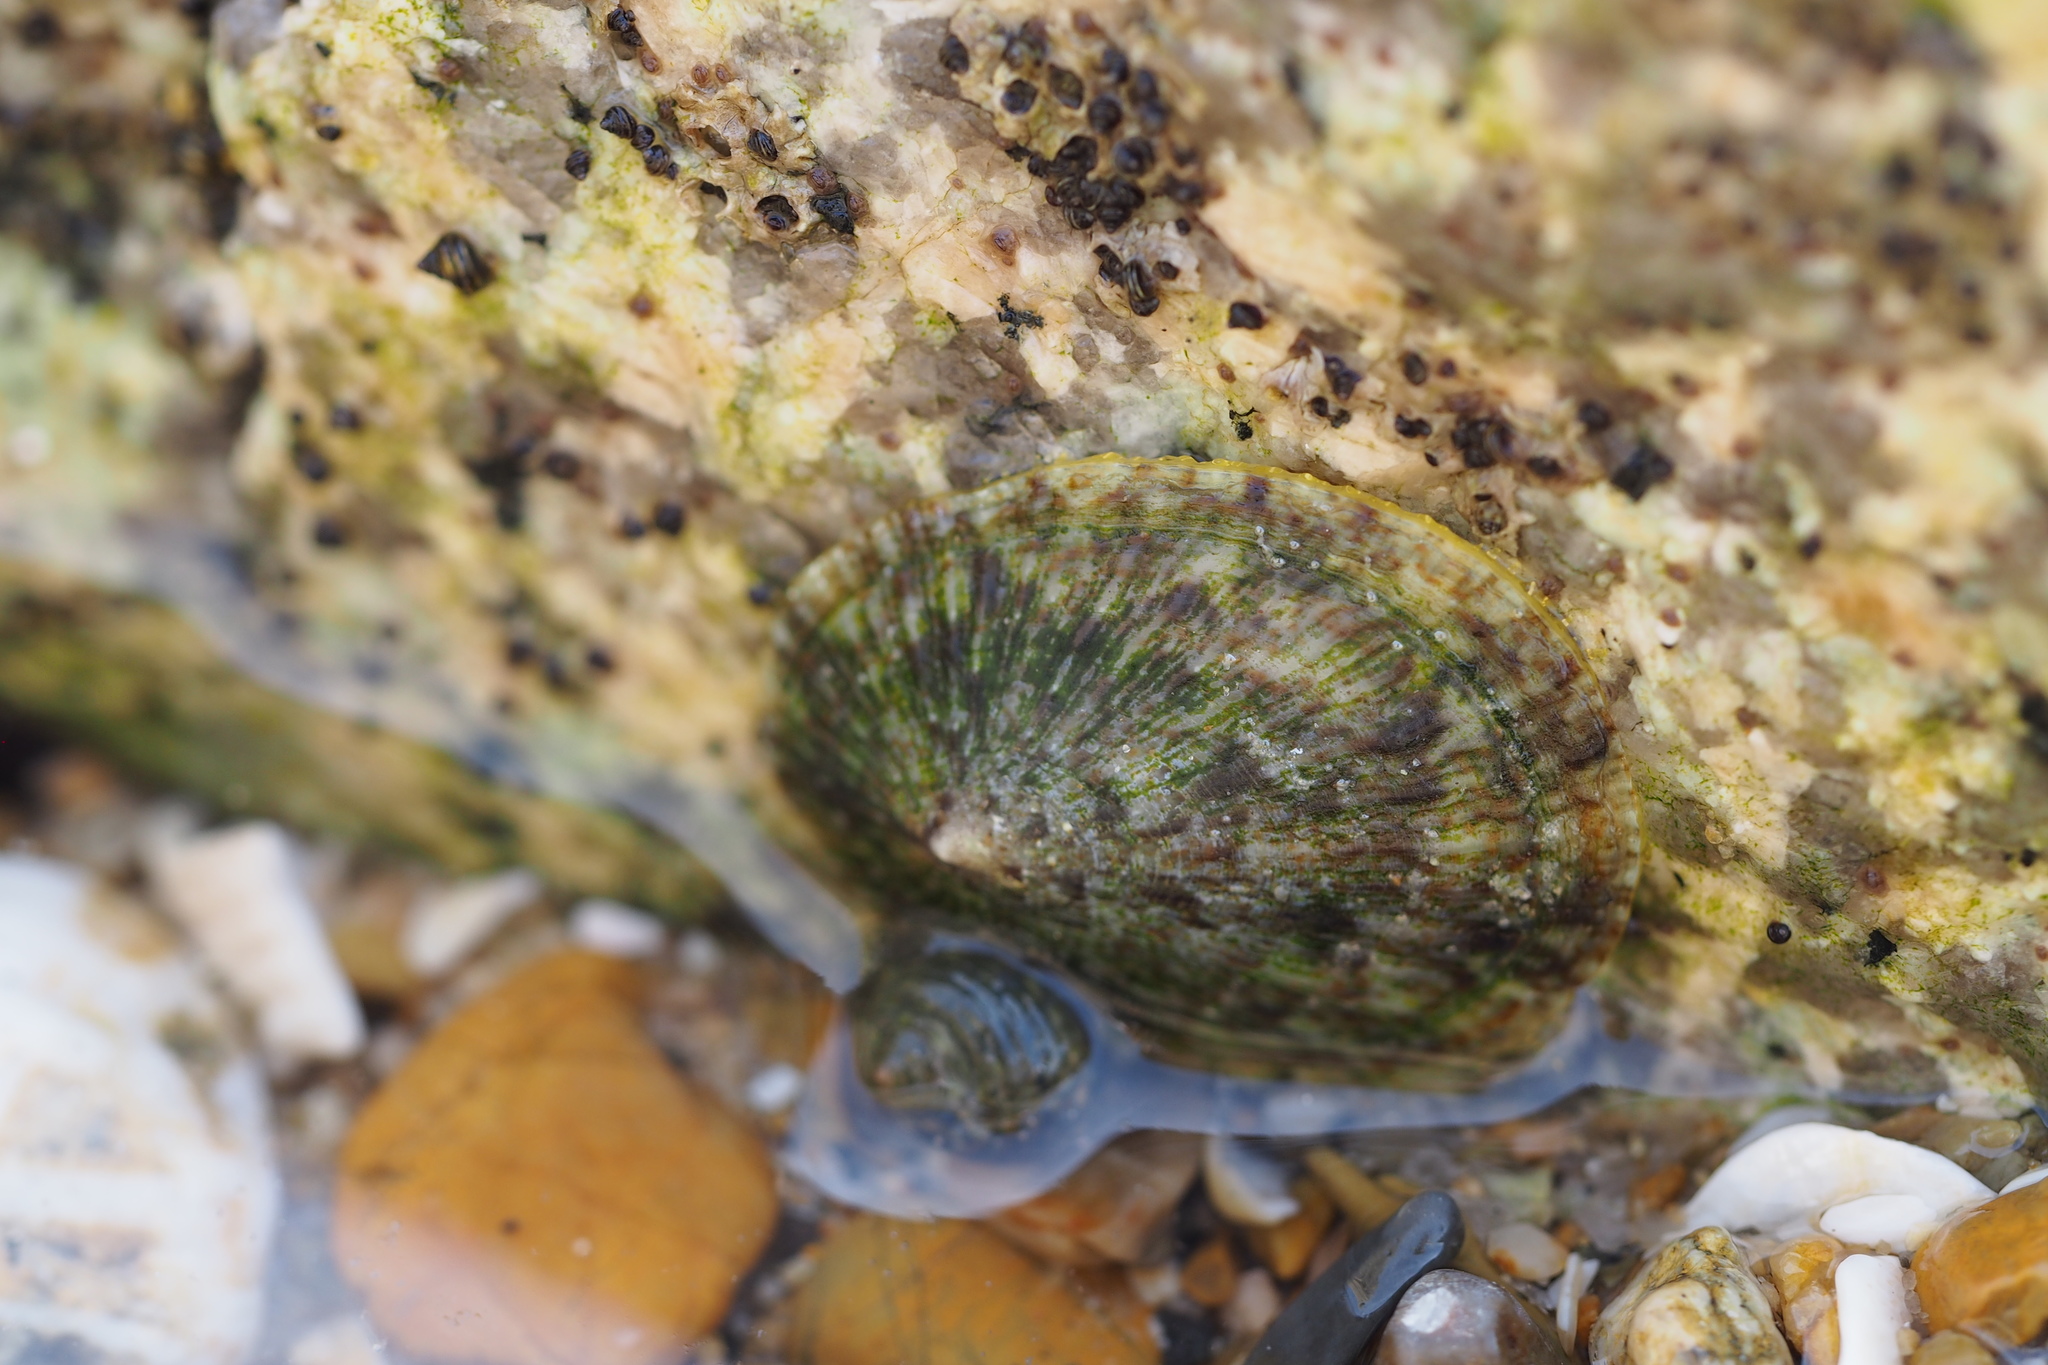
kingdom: Animalia
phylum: Mollusca
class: Gastropoda
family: Nacellidae
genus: Cellana
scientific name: Cellana toreuma
